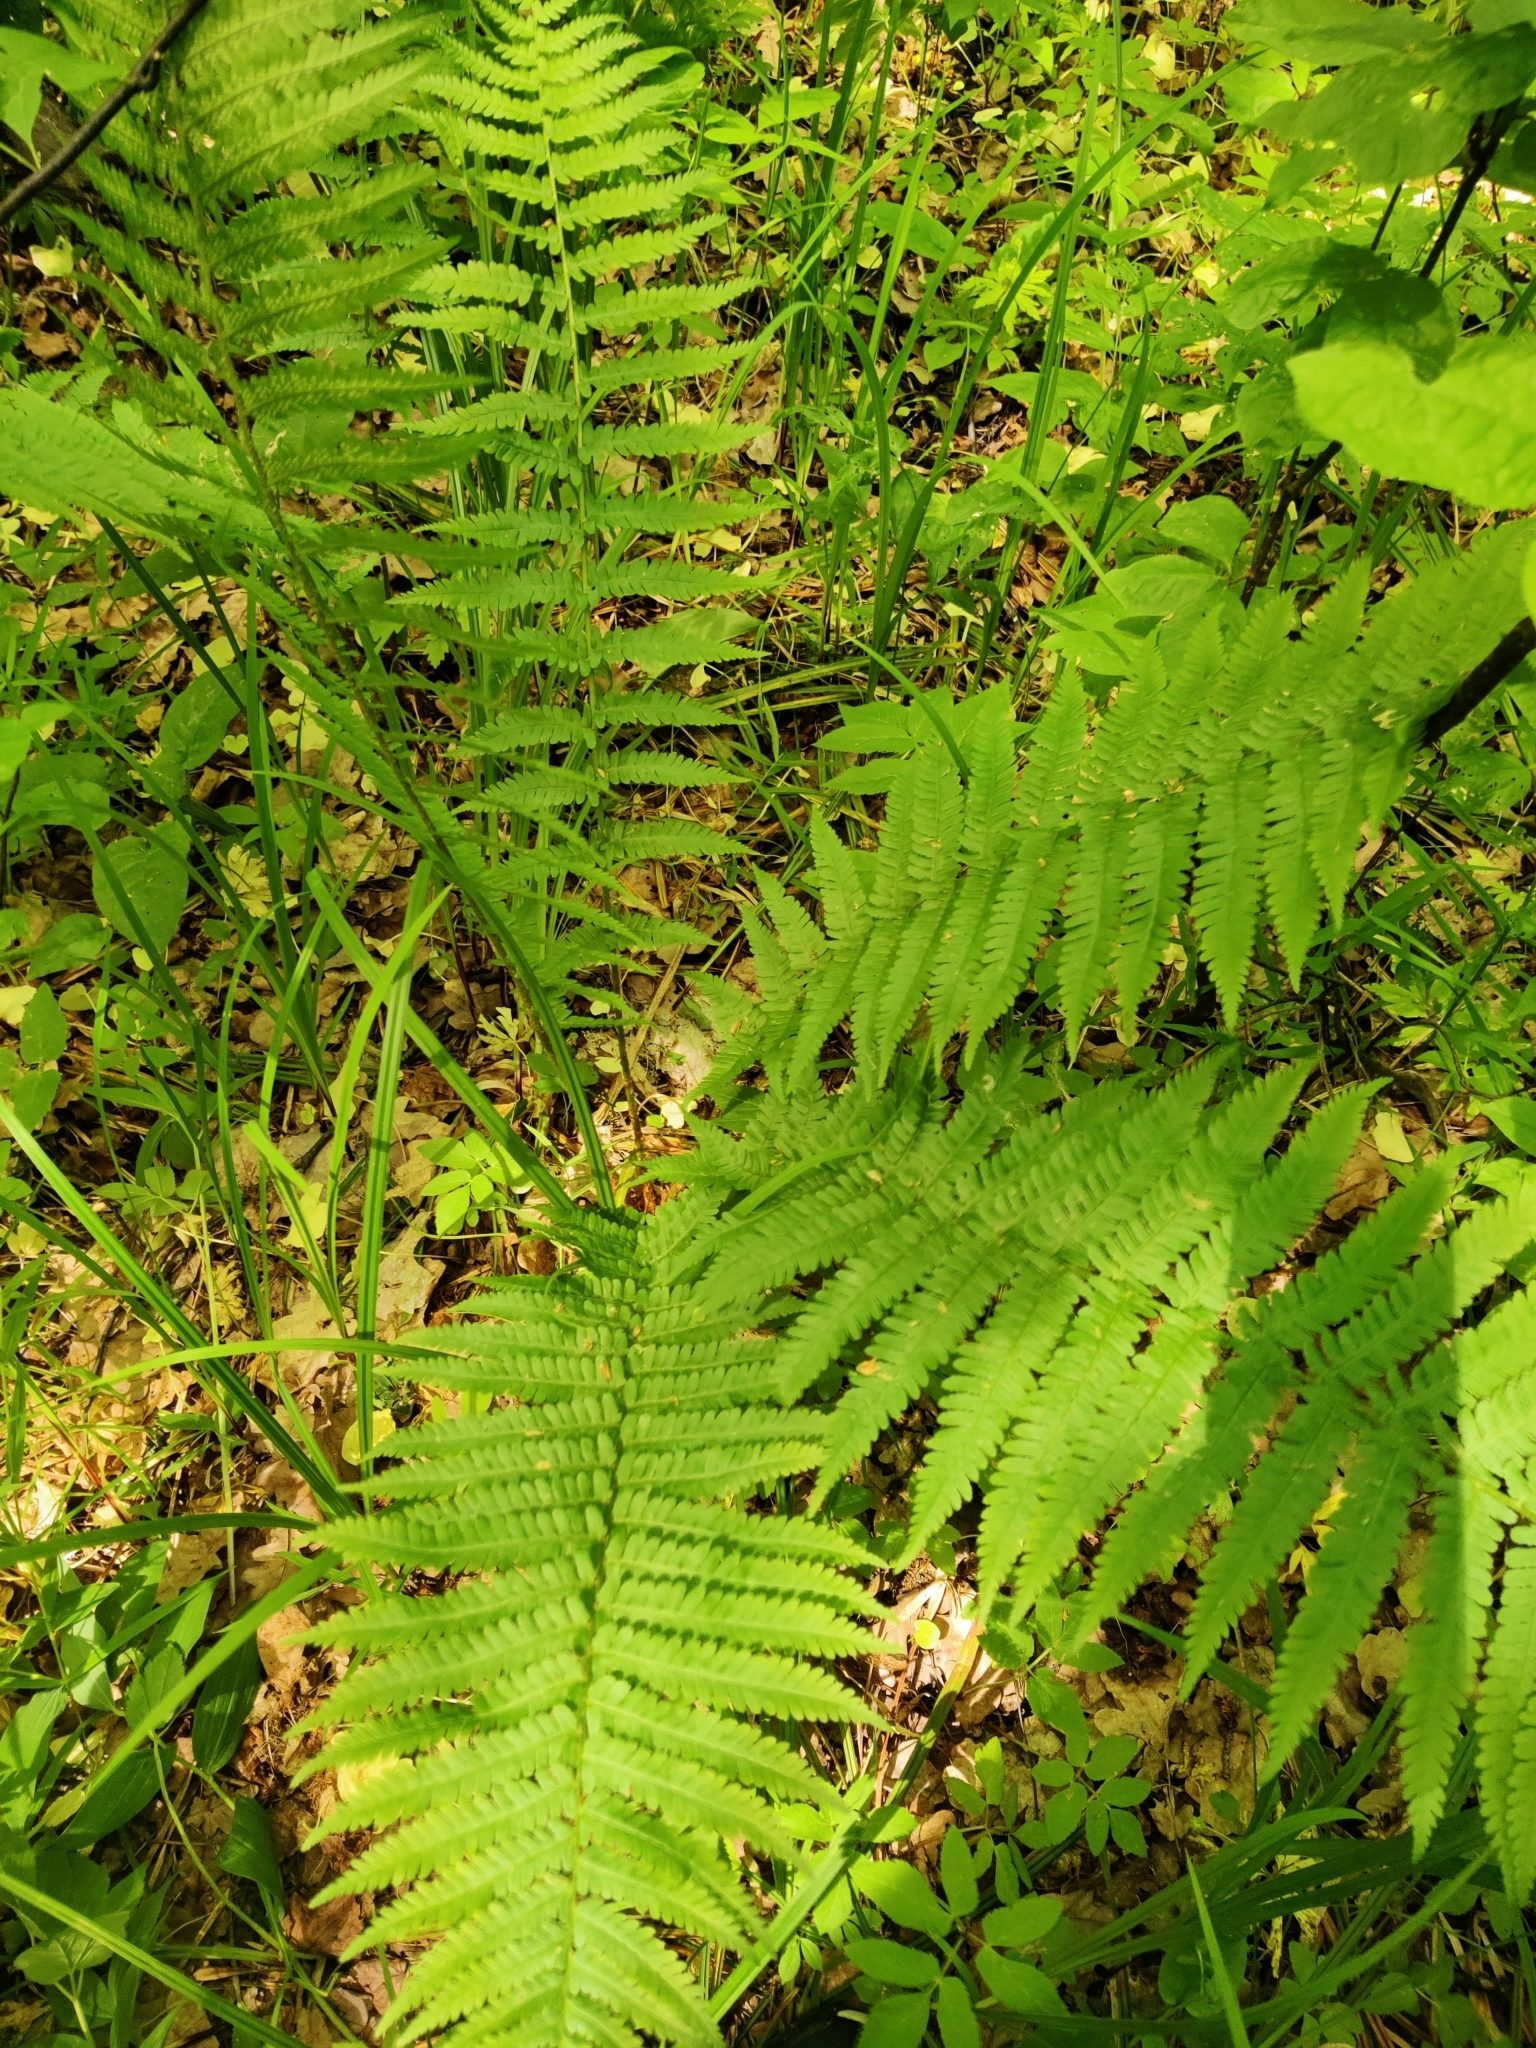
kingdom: Plantae
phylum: Tracheophyta
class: Polypodiopsida
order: Polypodiales
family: Dryopteridaceae
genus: Dryopteris
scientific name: Dryopteris filix-mas
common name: Male fern
